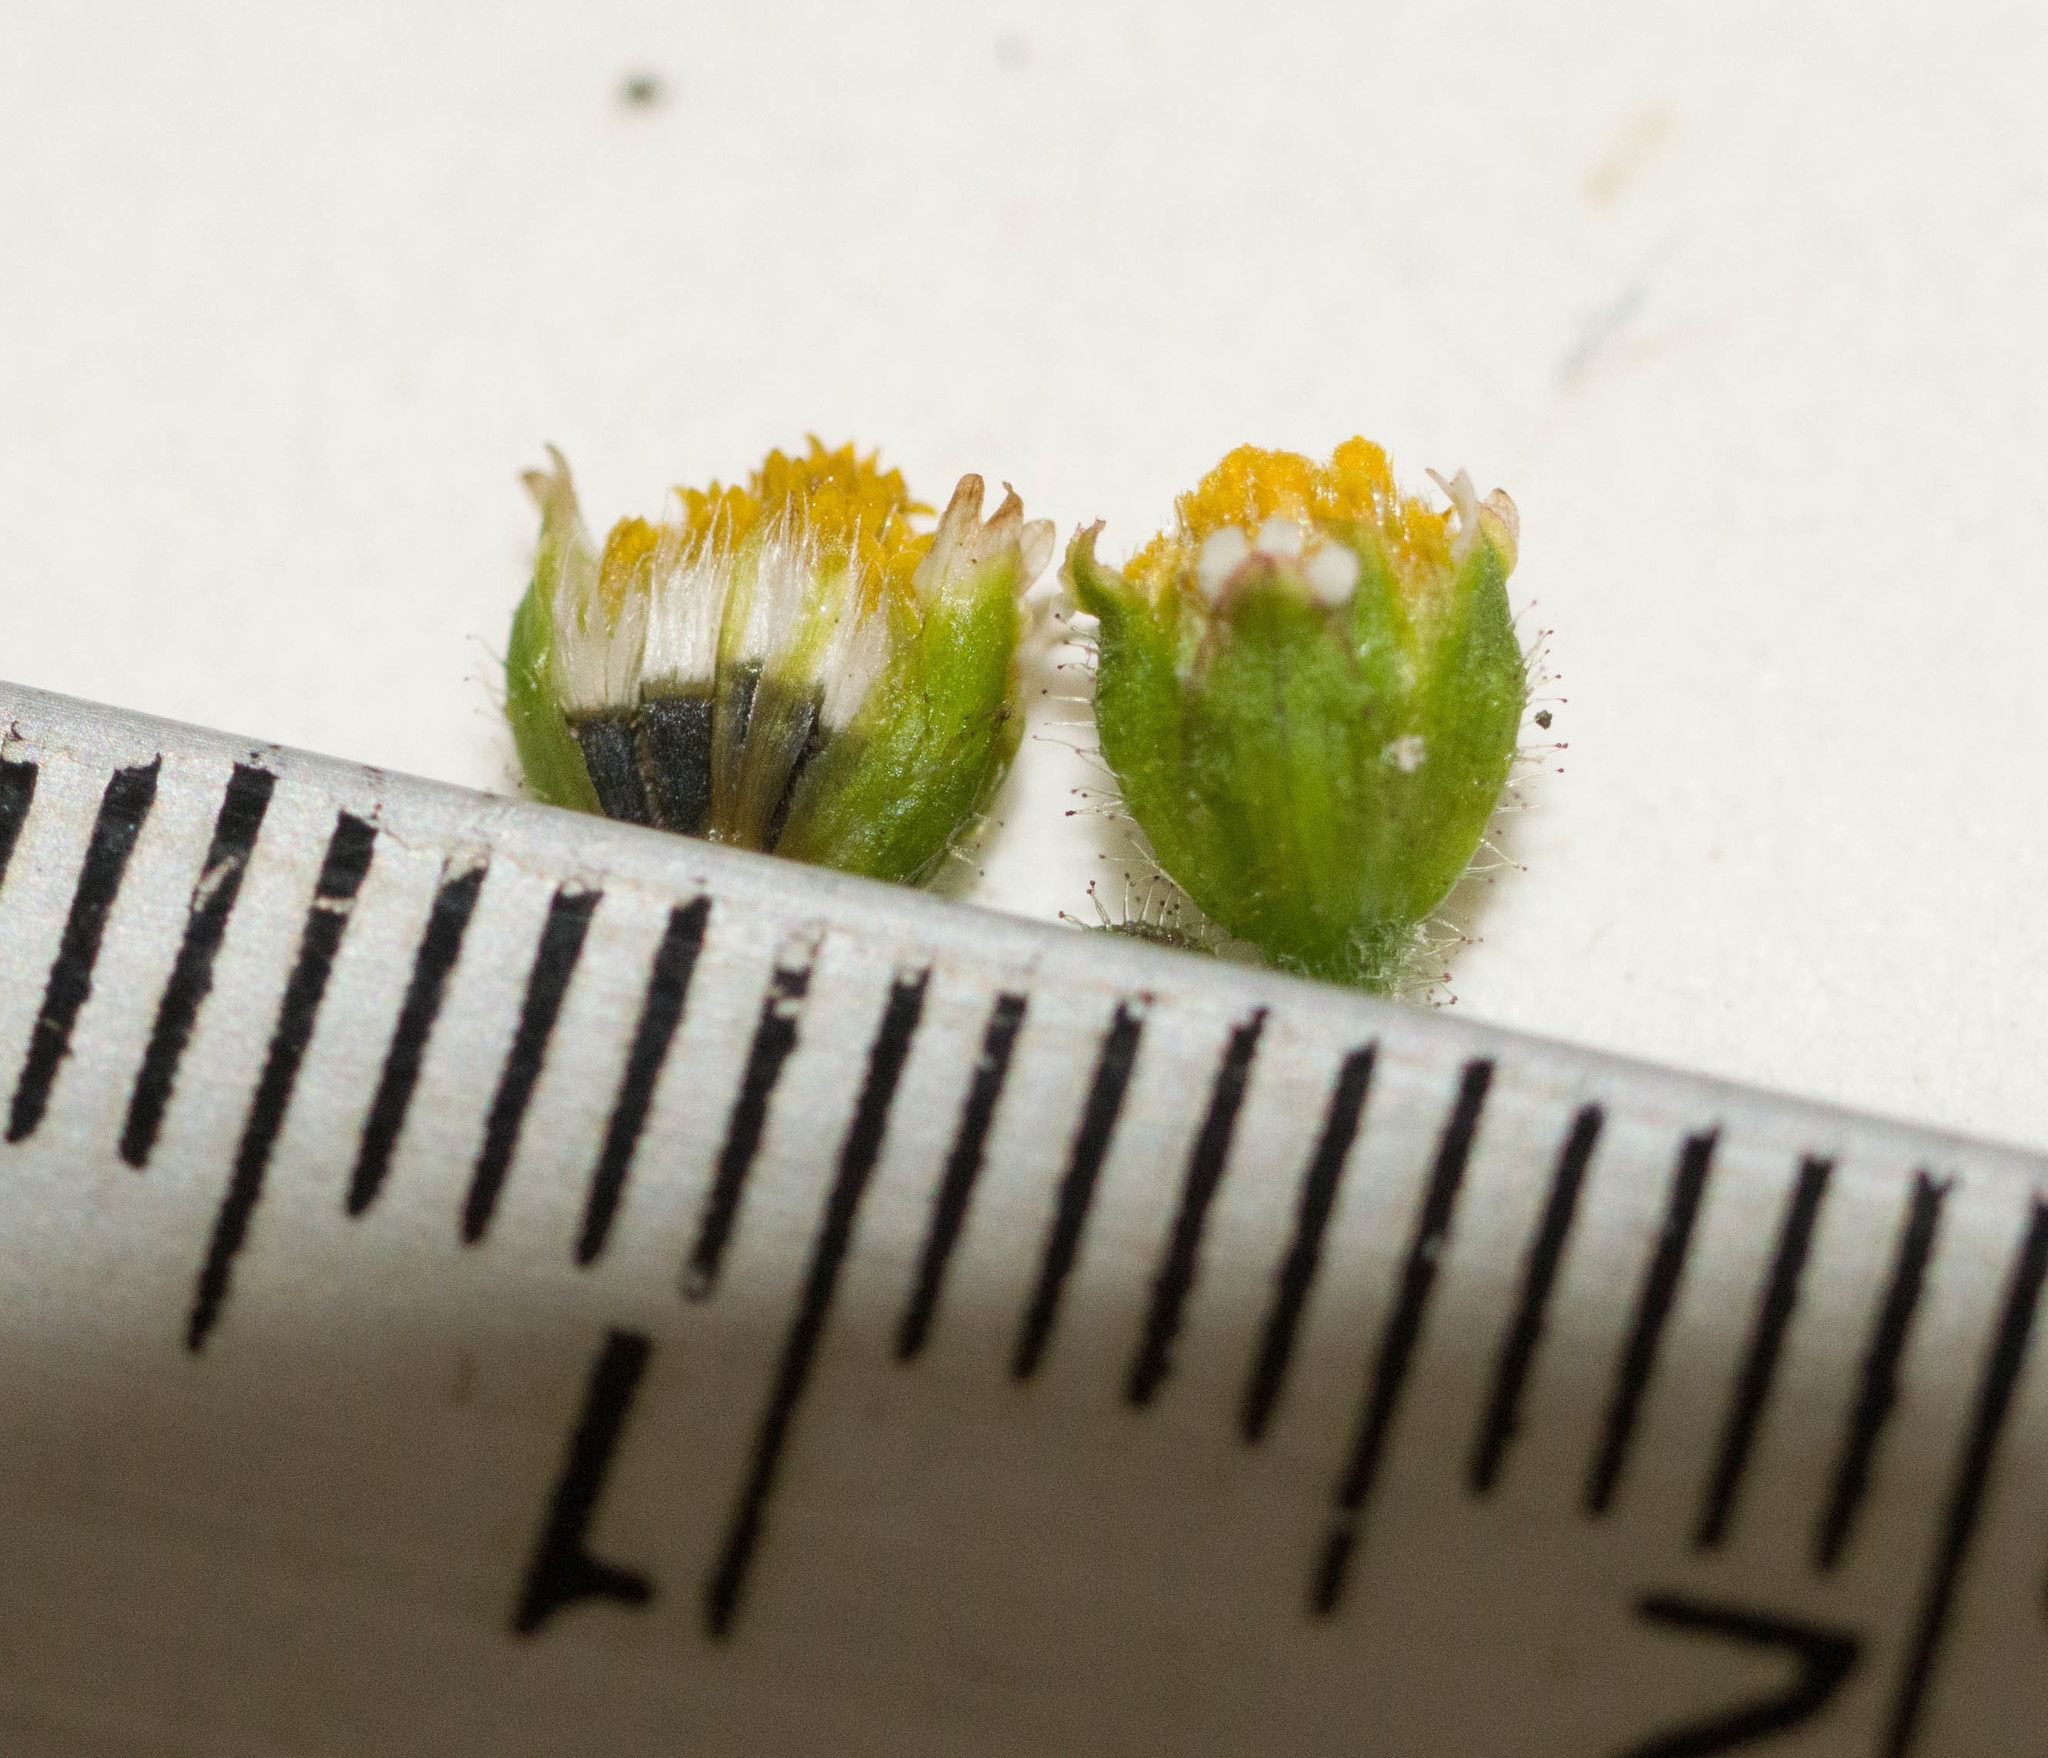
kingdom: Plantae
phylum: Tracheophyta
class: Magnoliopsida
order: Asterales
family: Asteraceae
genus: Galinsoga
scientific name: Galinsoga quadriradiata
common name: Shaggy soldier
